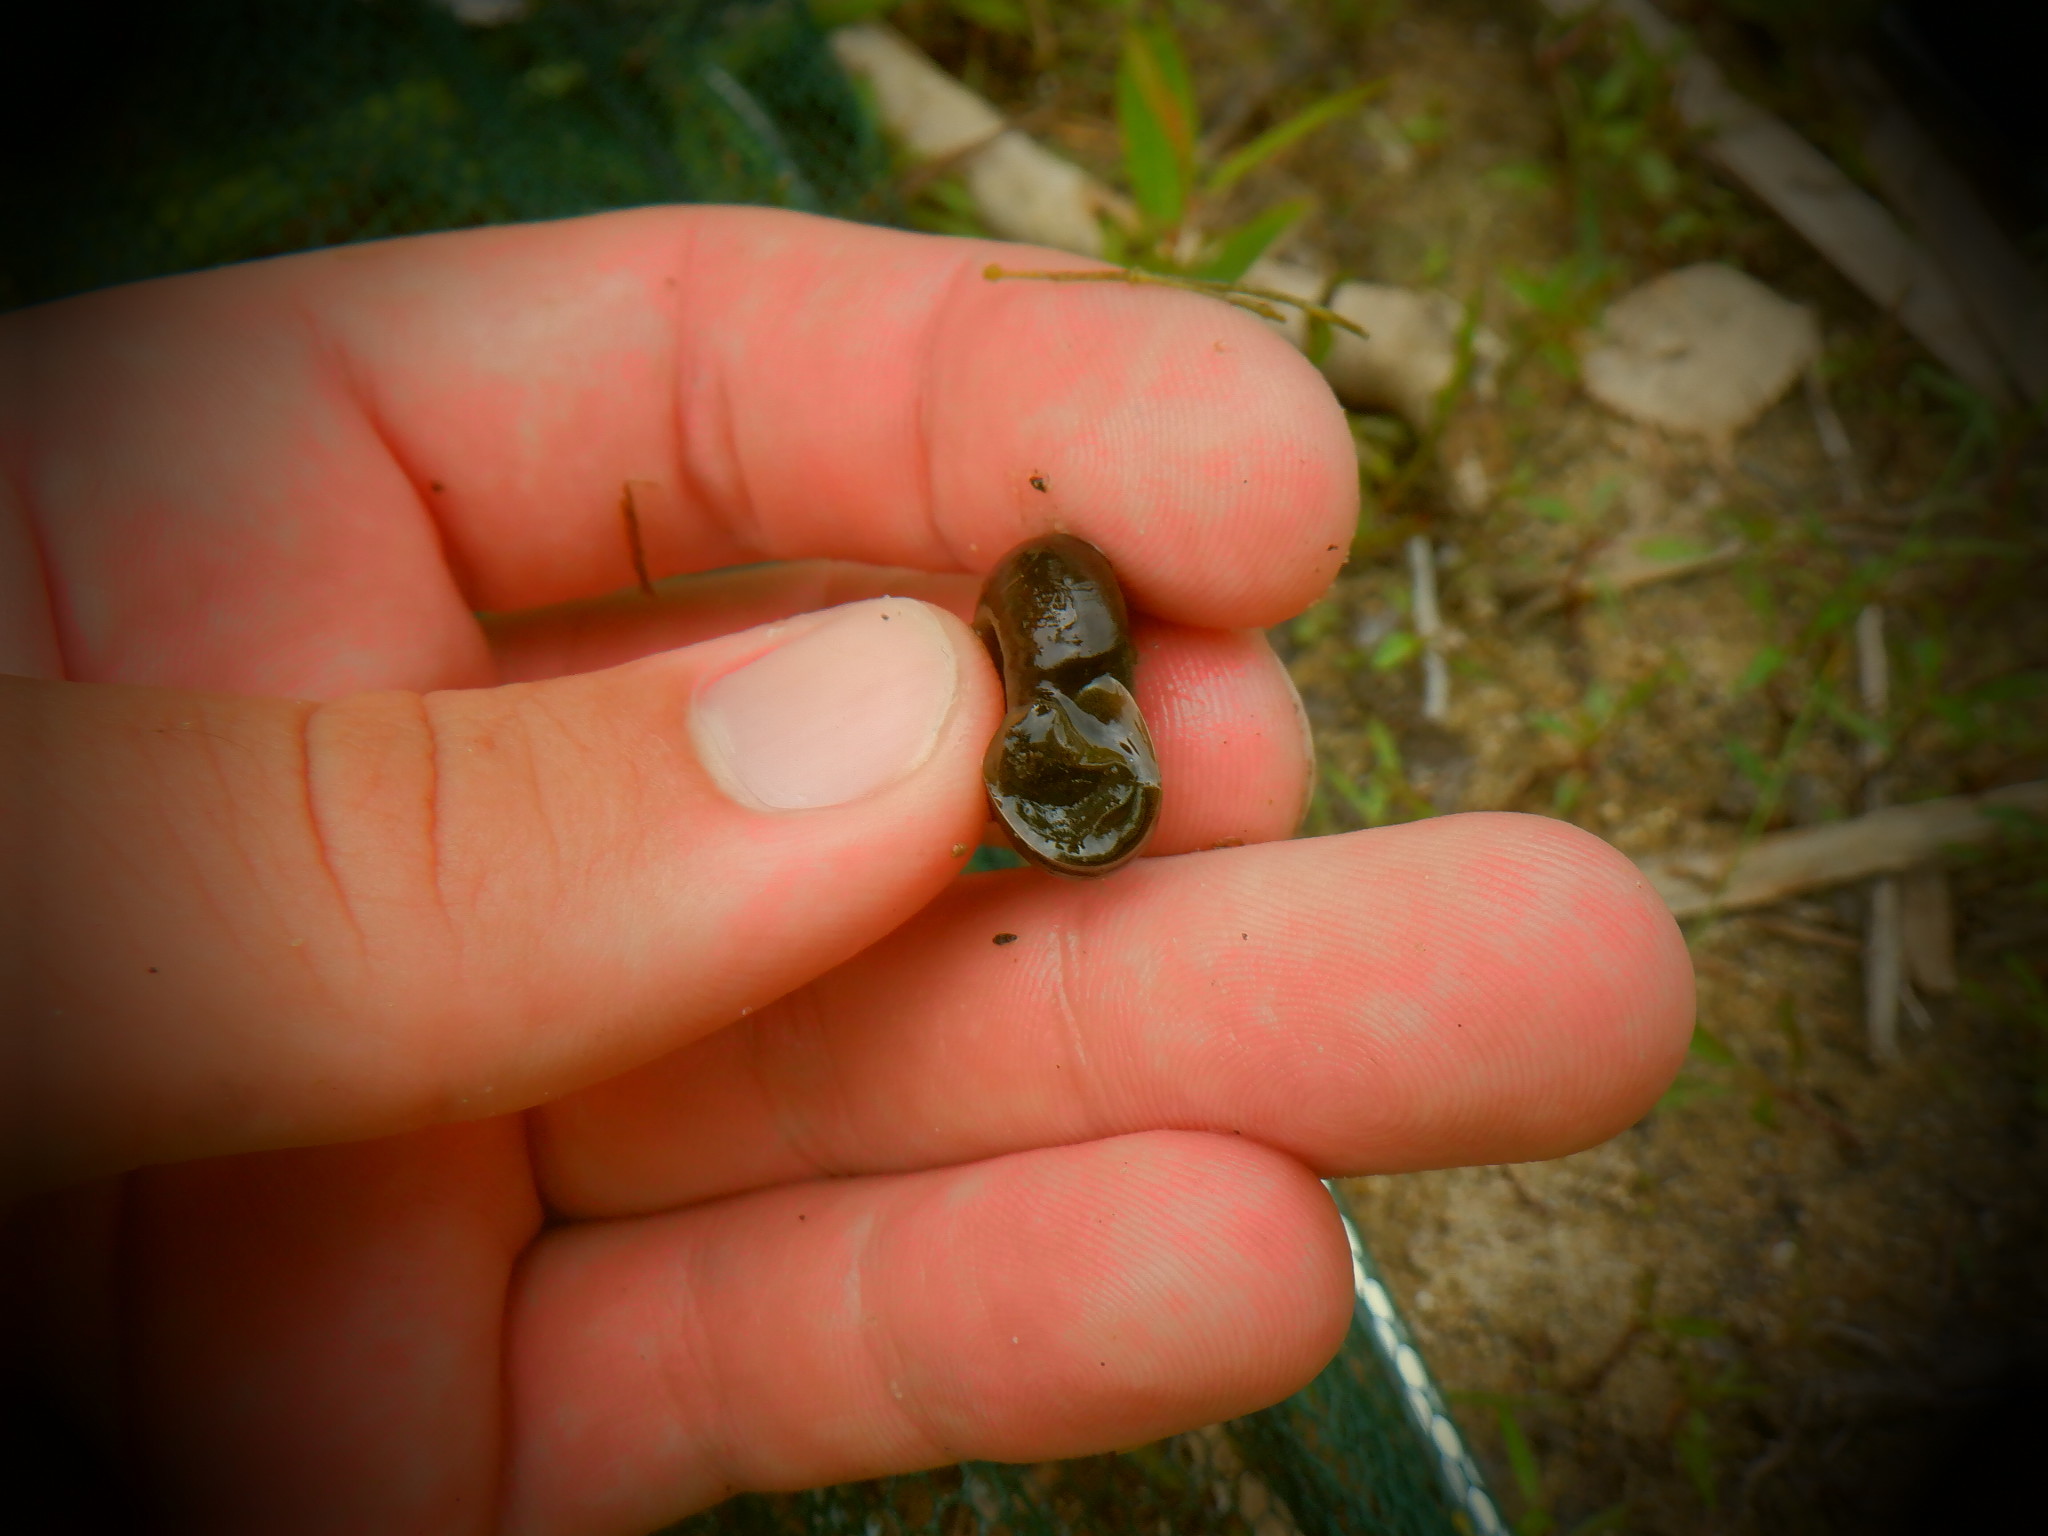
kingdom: Animalia
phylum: Mollusca
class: Gastropoda
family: Planorbidae
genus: Planorbella
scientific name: Planorbella trivolvis
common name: Marsh rams-horn
